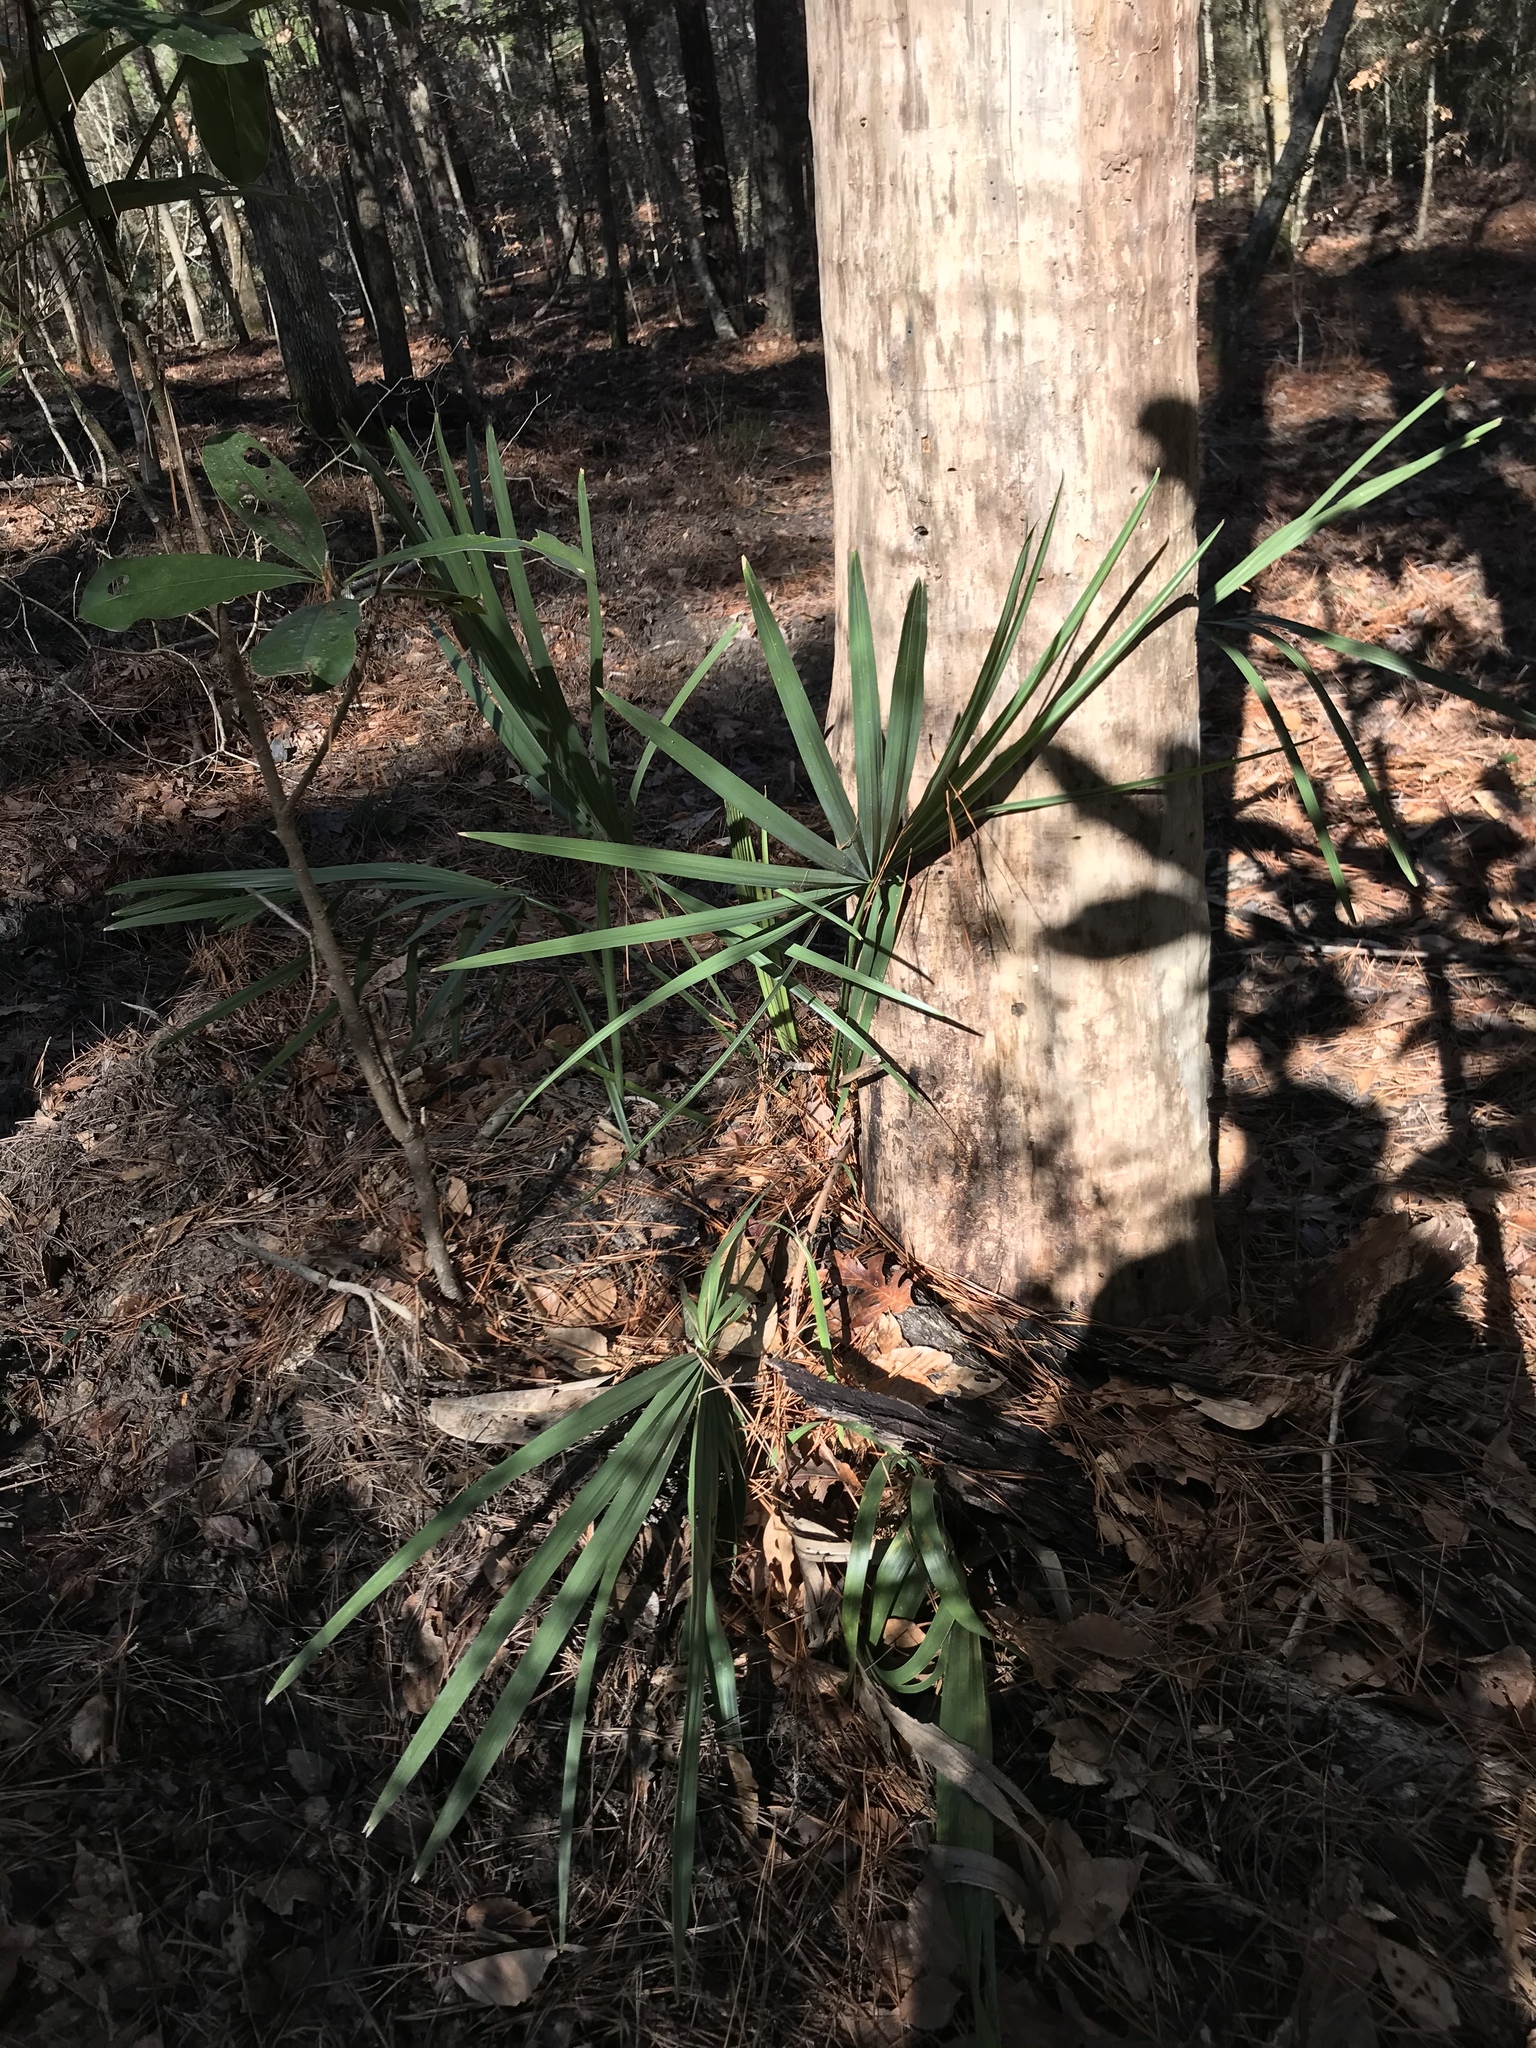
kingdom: Plantae
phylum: Tracheophyta
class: Liliopsida
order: Arecales
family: Arecaceae
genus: Sabal
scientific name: Sabal minor
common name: Dwarf palmetto
